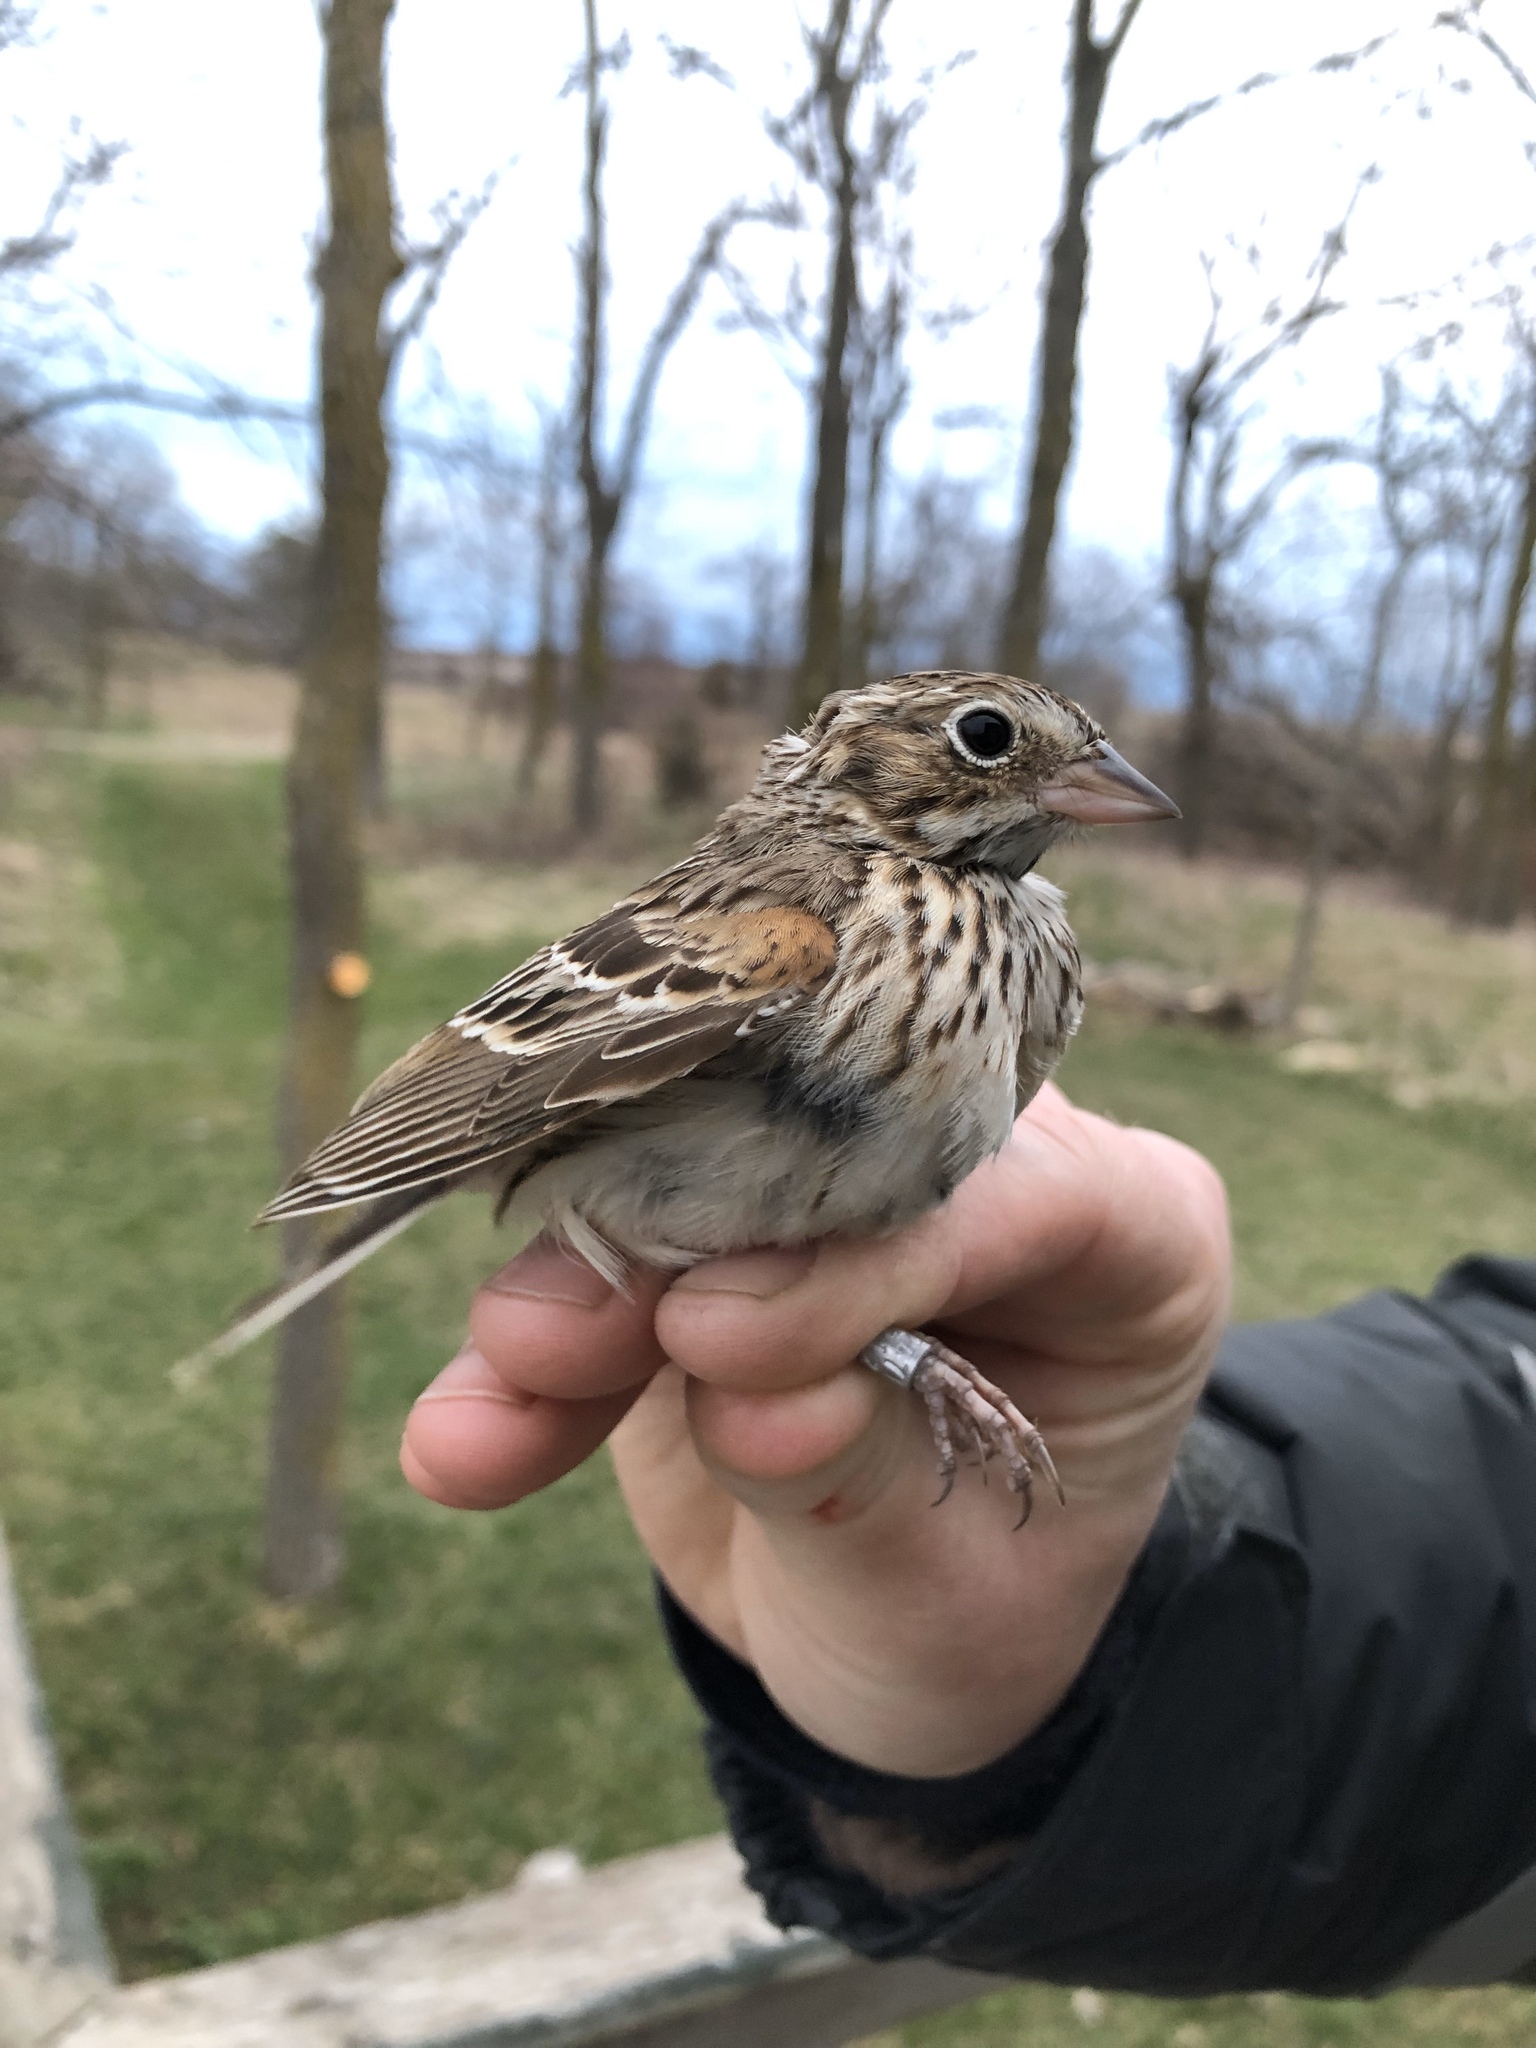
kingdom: Animalia
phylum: Chordata
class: Aves
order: Passeriformes
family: Passerellidae
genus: Pooecetes
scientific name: Pooecetes gramineus
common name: Vesper sparrow
